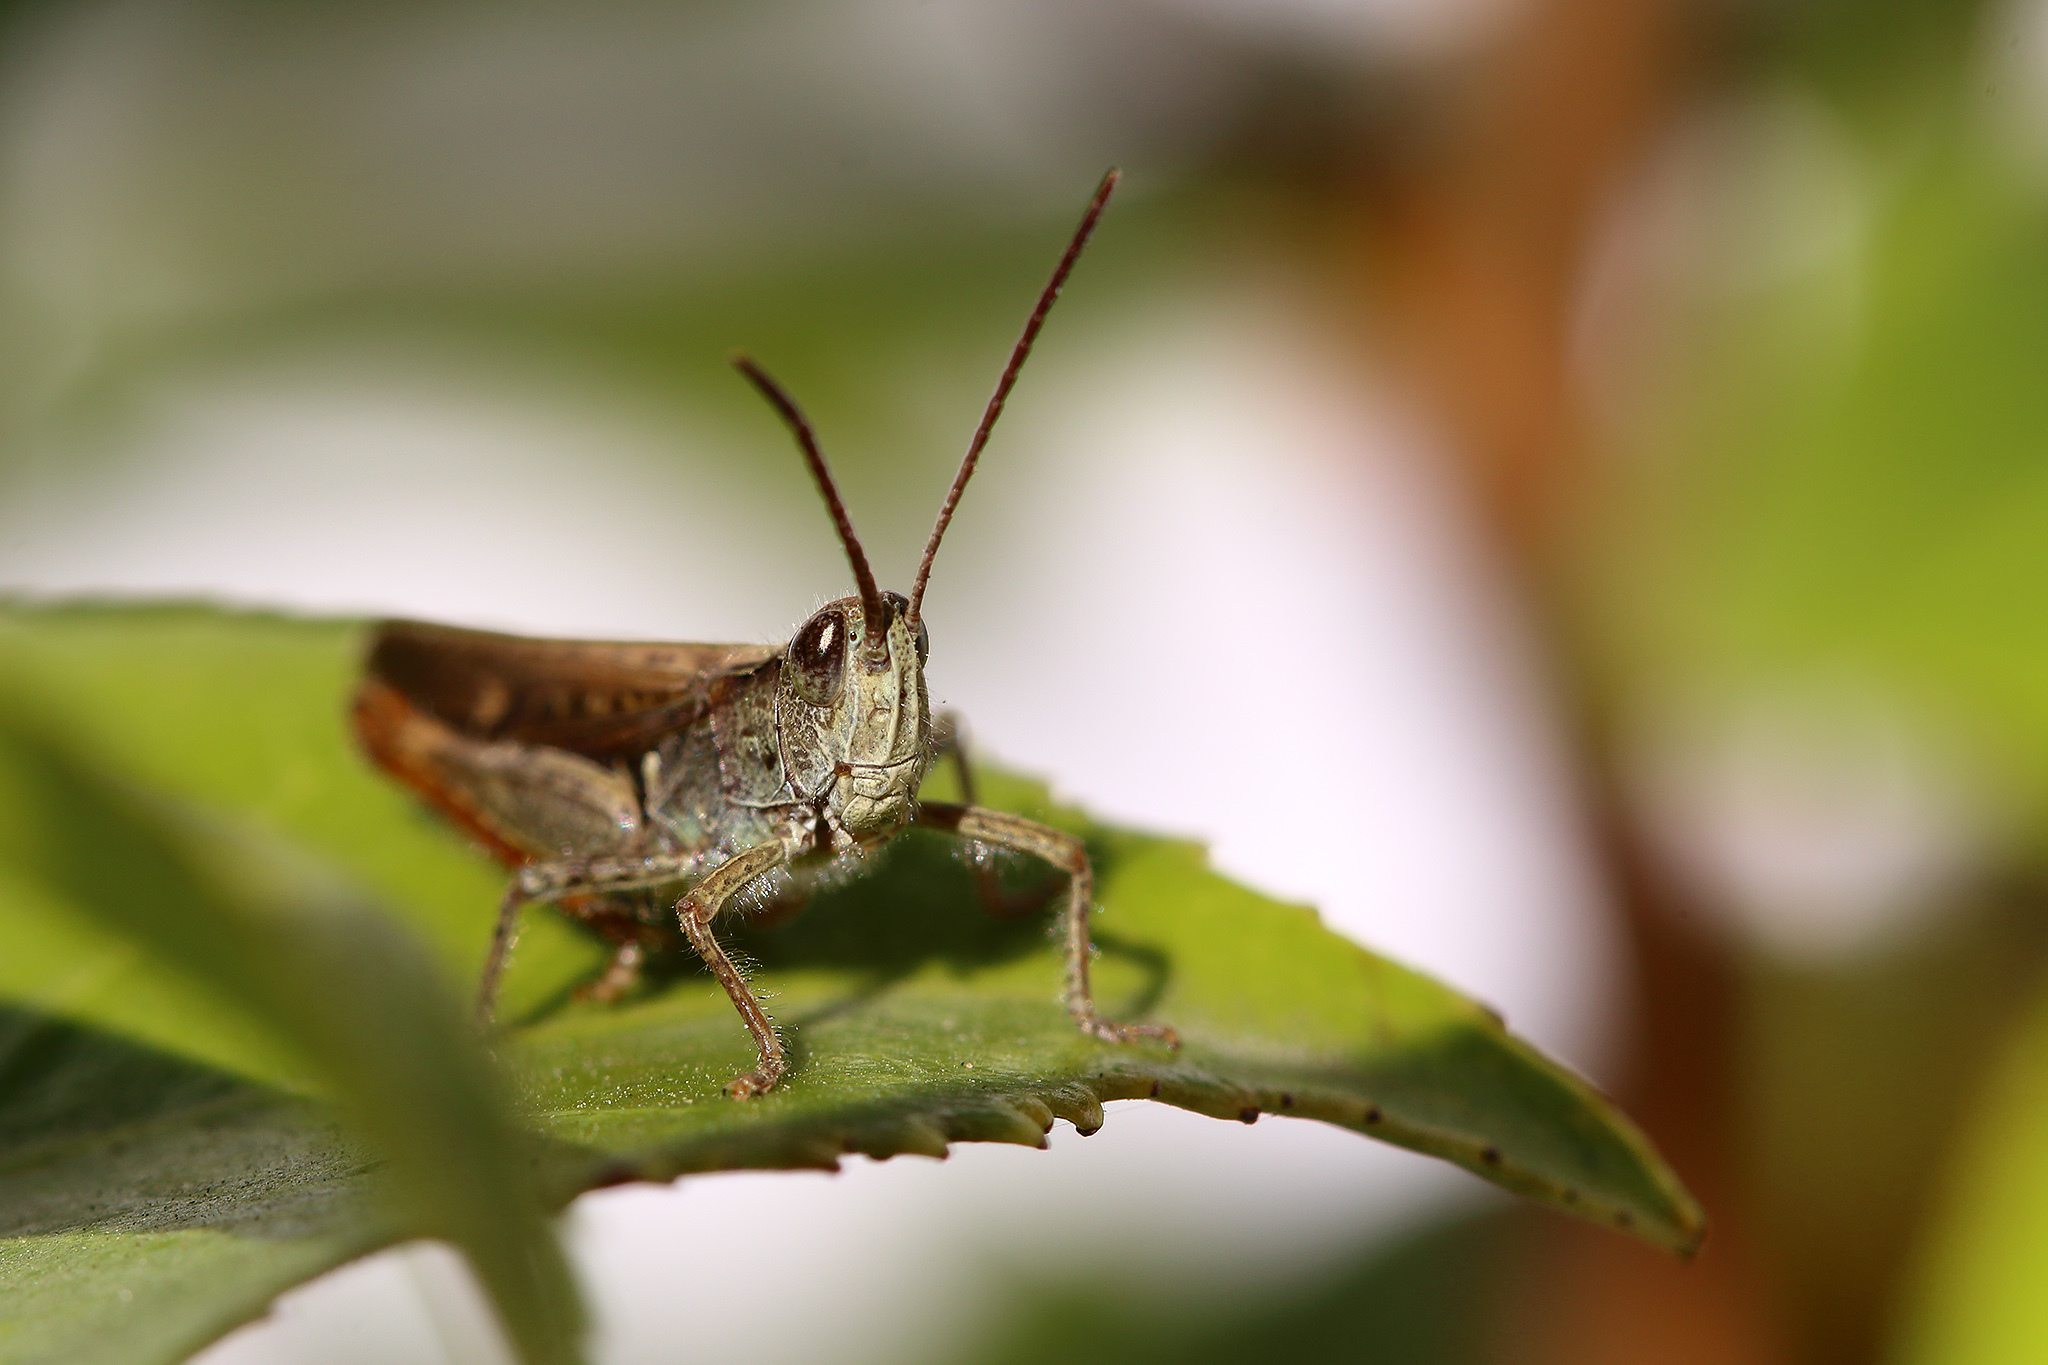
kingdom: Animalia
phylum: Arthropoda
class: Insecta
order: Orthoptera
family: Acrididae
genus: Chorthippus
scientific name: Chorthippus brunneus
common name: Field grasshopper
